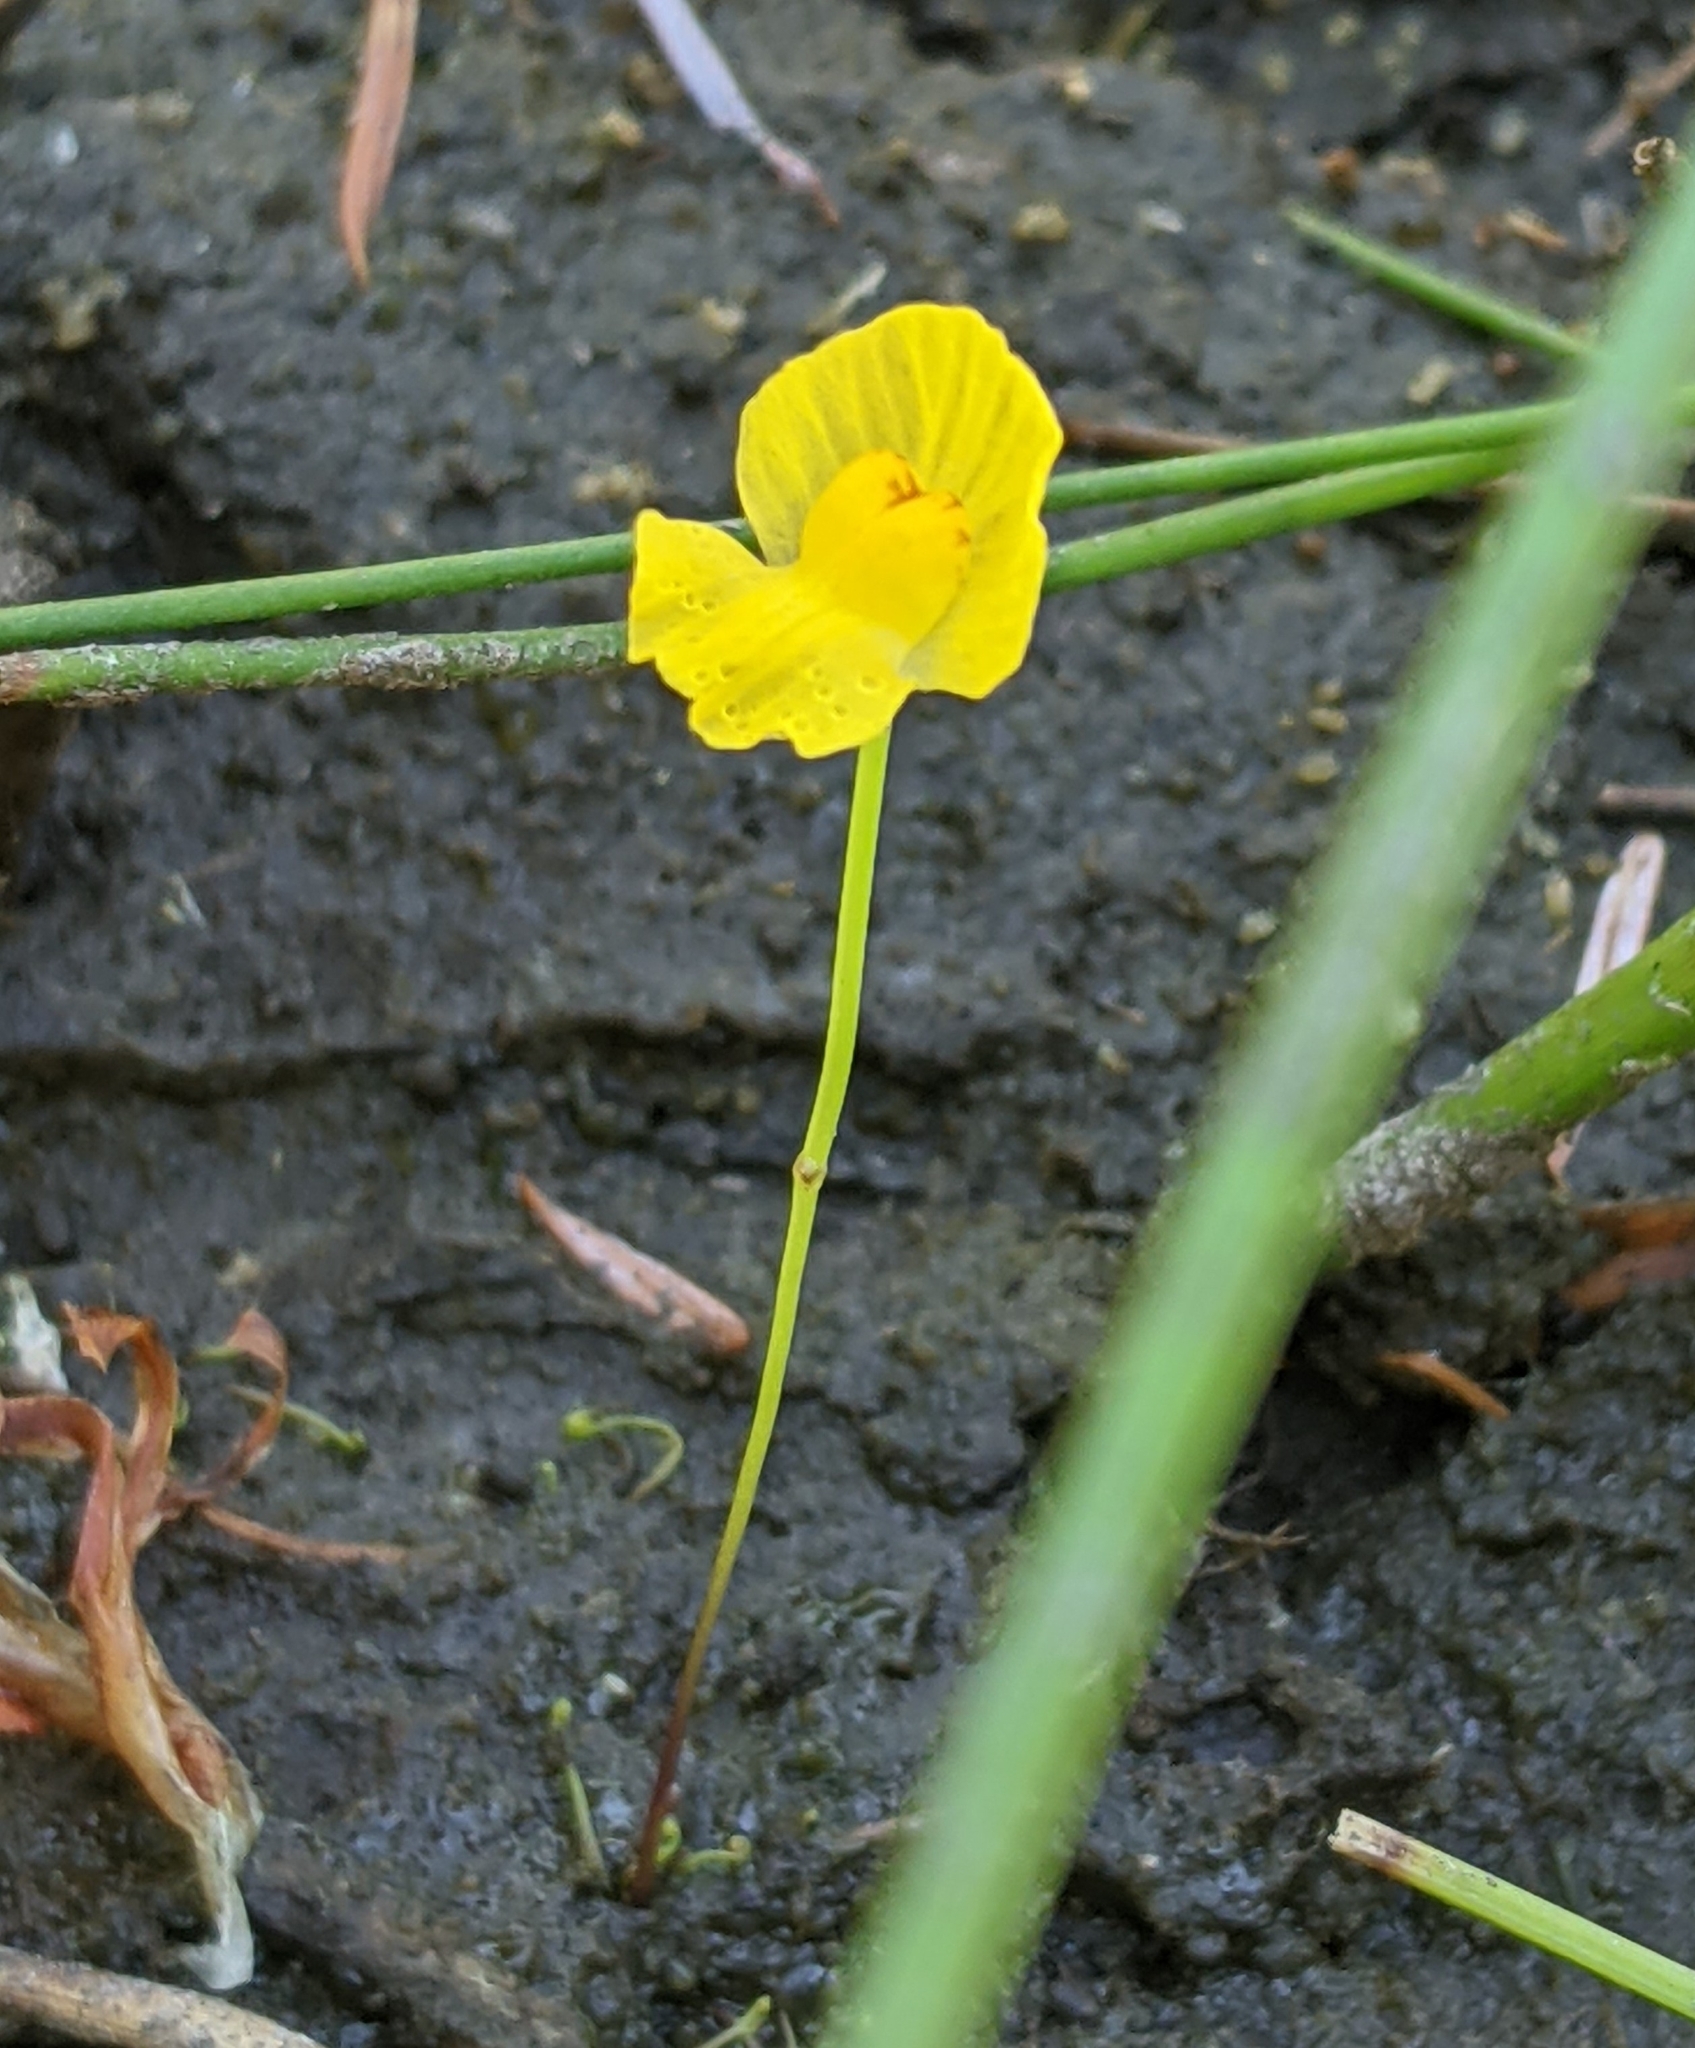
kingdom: Plantae
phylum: Tracheophyta
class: Magnoliopsida
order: Lamiales
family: Lentibulariaceae
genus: Utricularia
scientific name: Utricularia gibba
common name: Humped bladderwort
